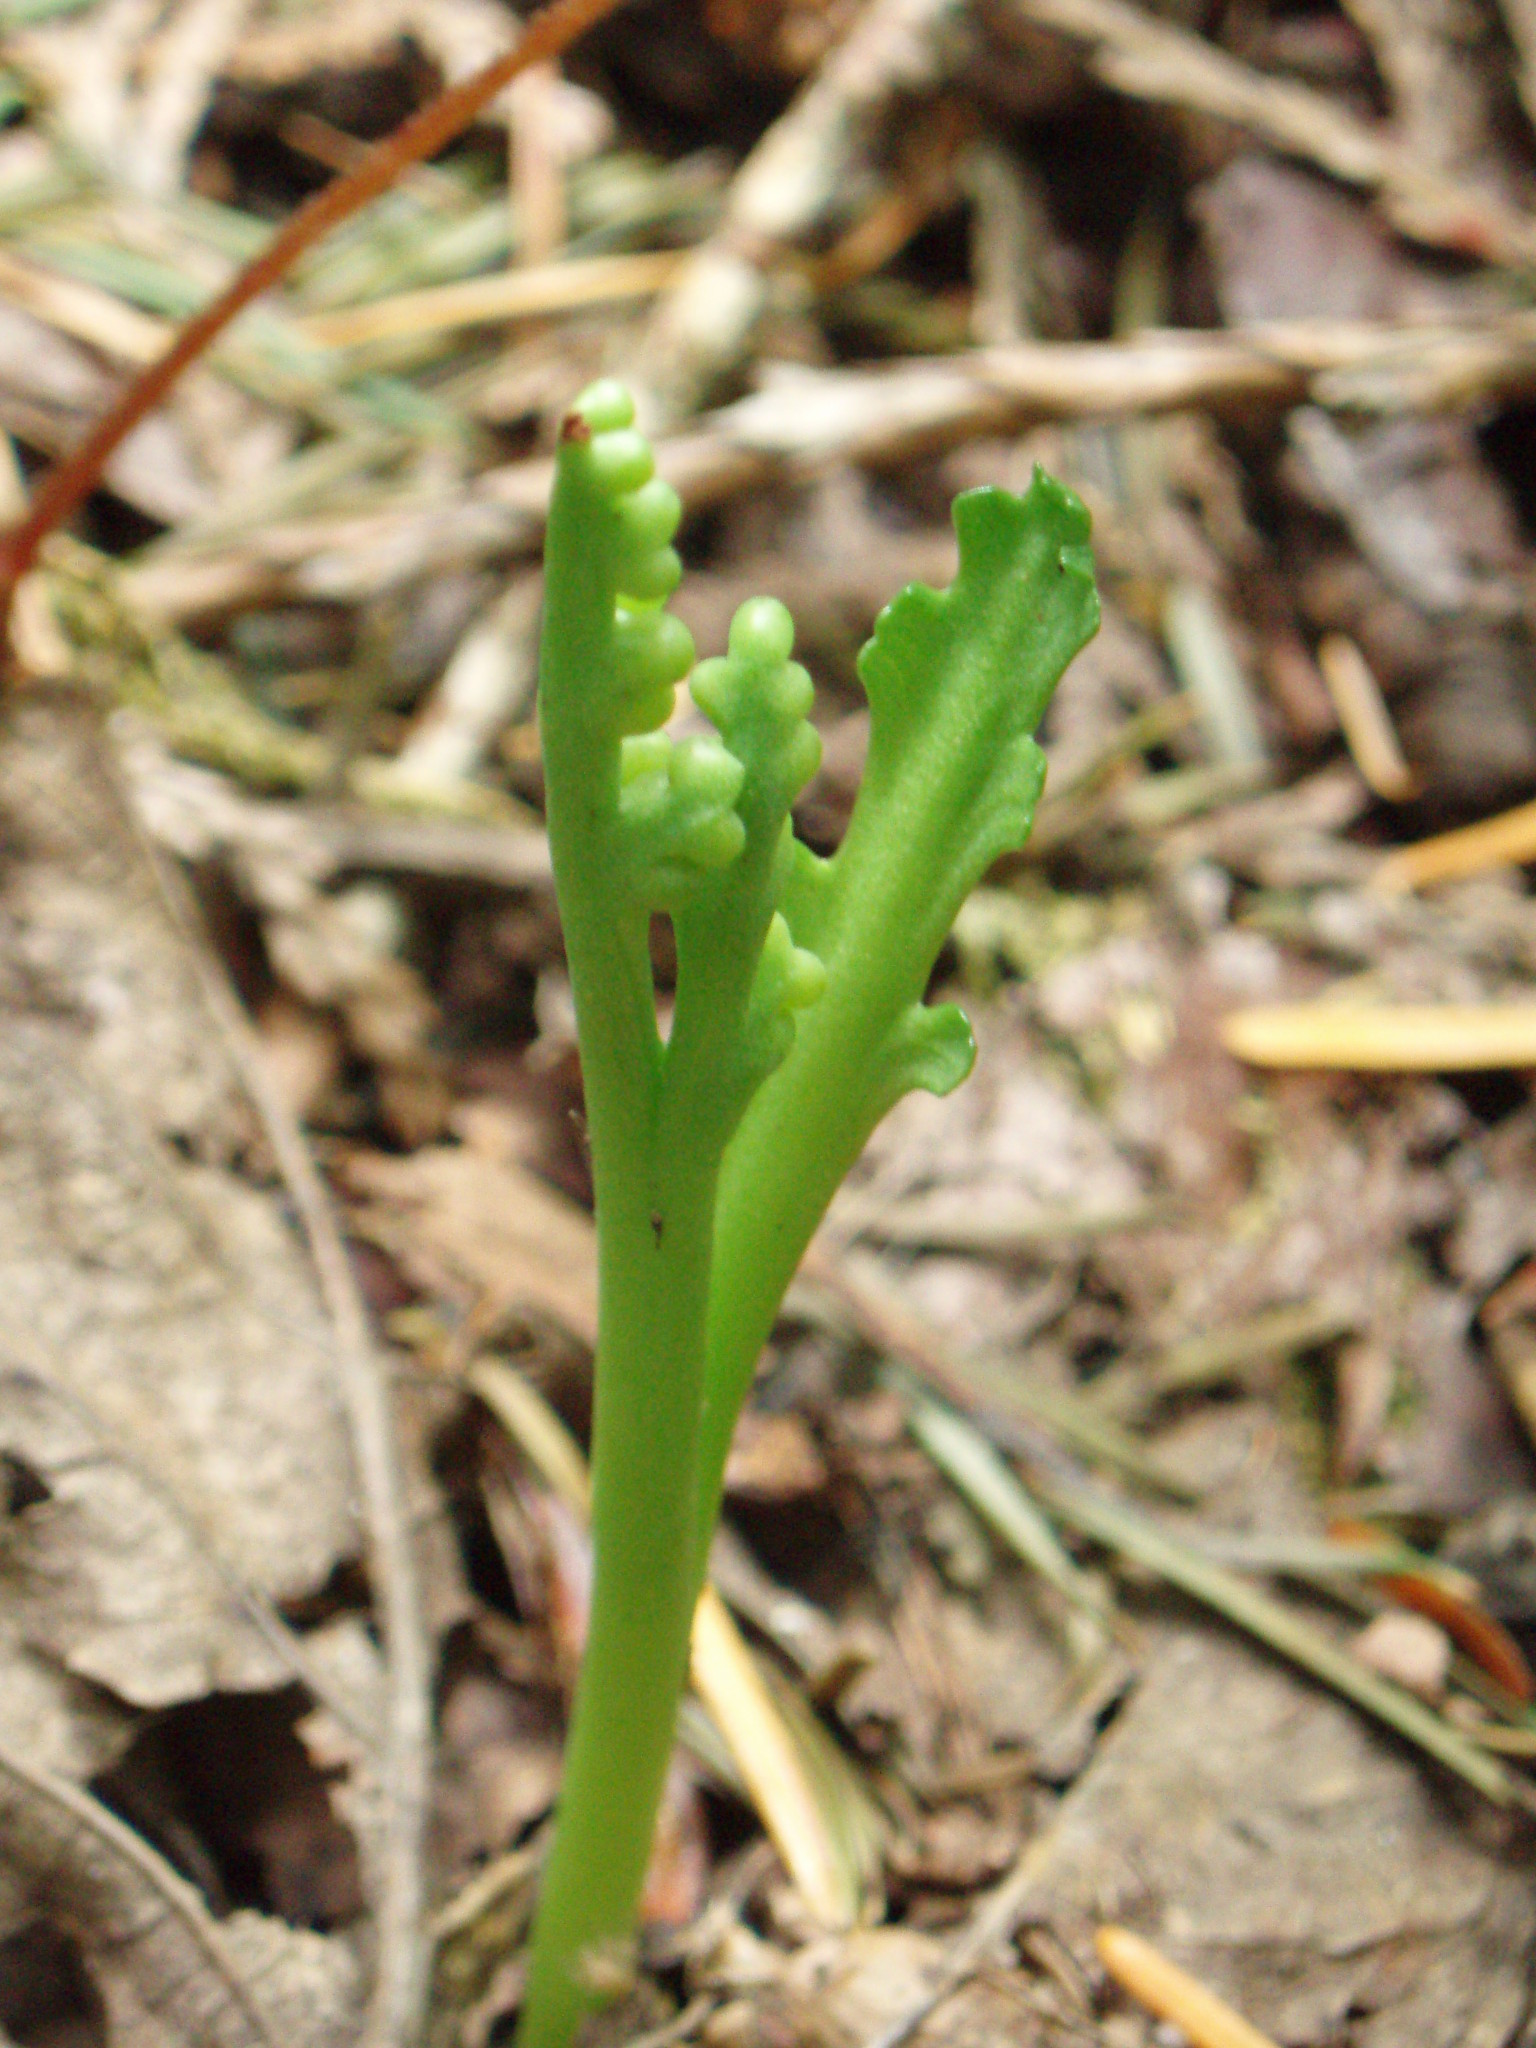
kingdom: Plantae
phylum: Tracheophyta
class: Polypodiopsida
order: Ophioglossales
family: Ophioglossaceae
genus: Botrychium
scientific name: Botrychium montanum
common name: Mountain moonwort
